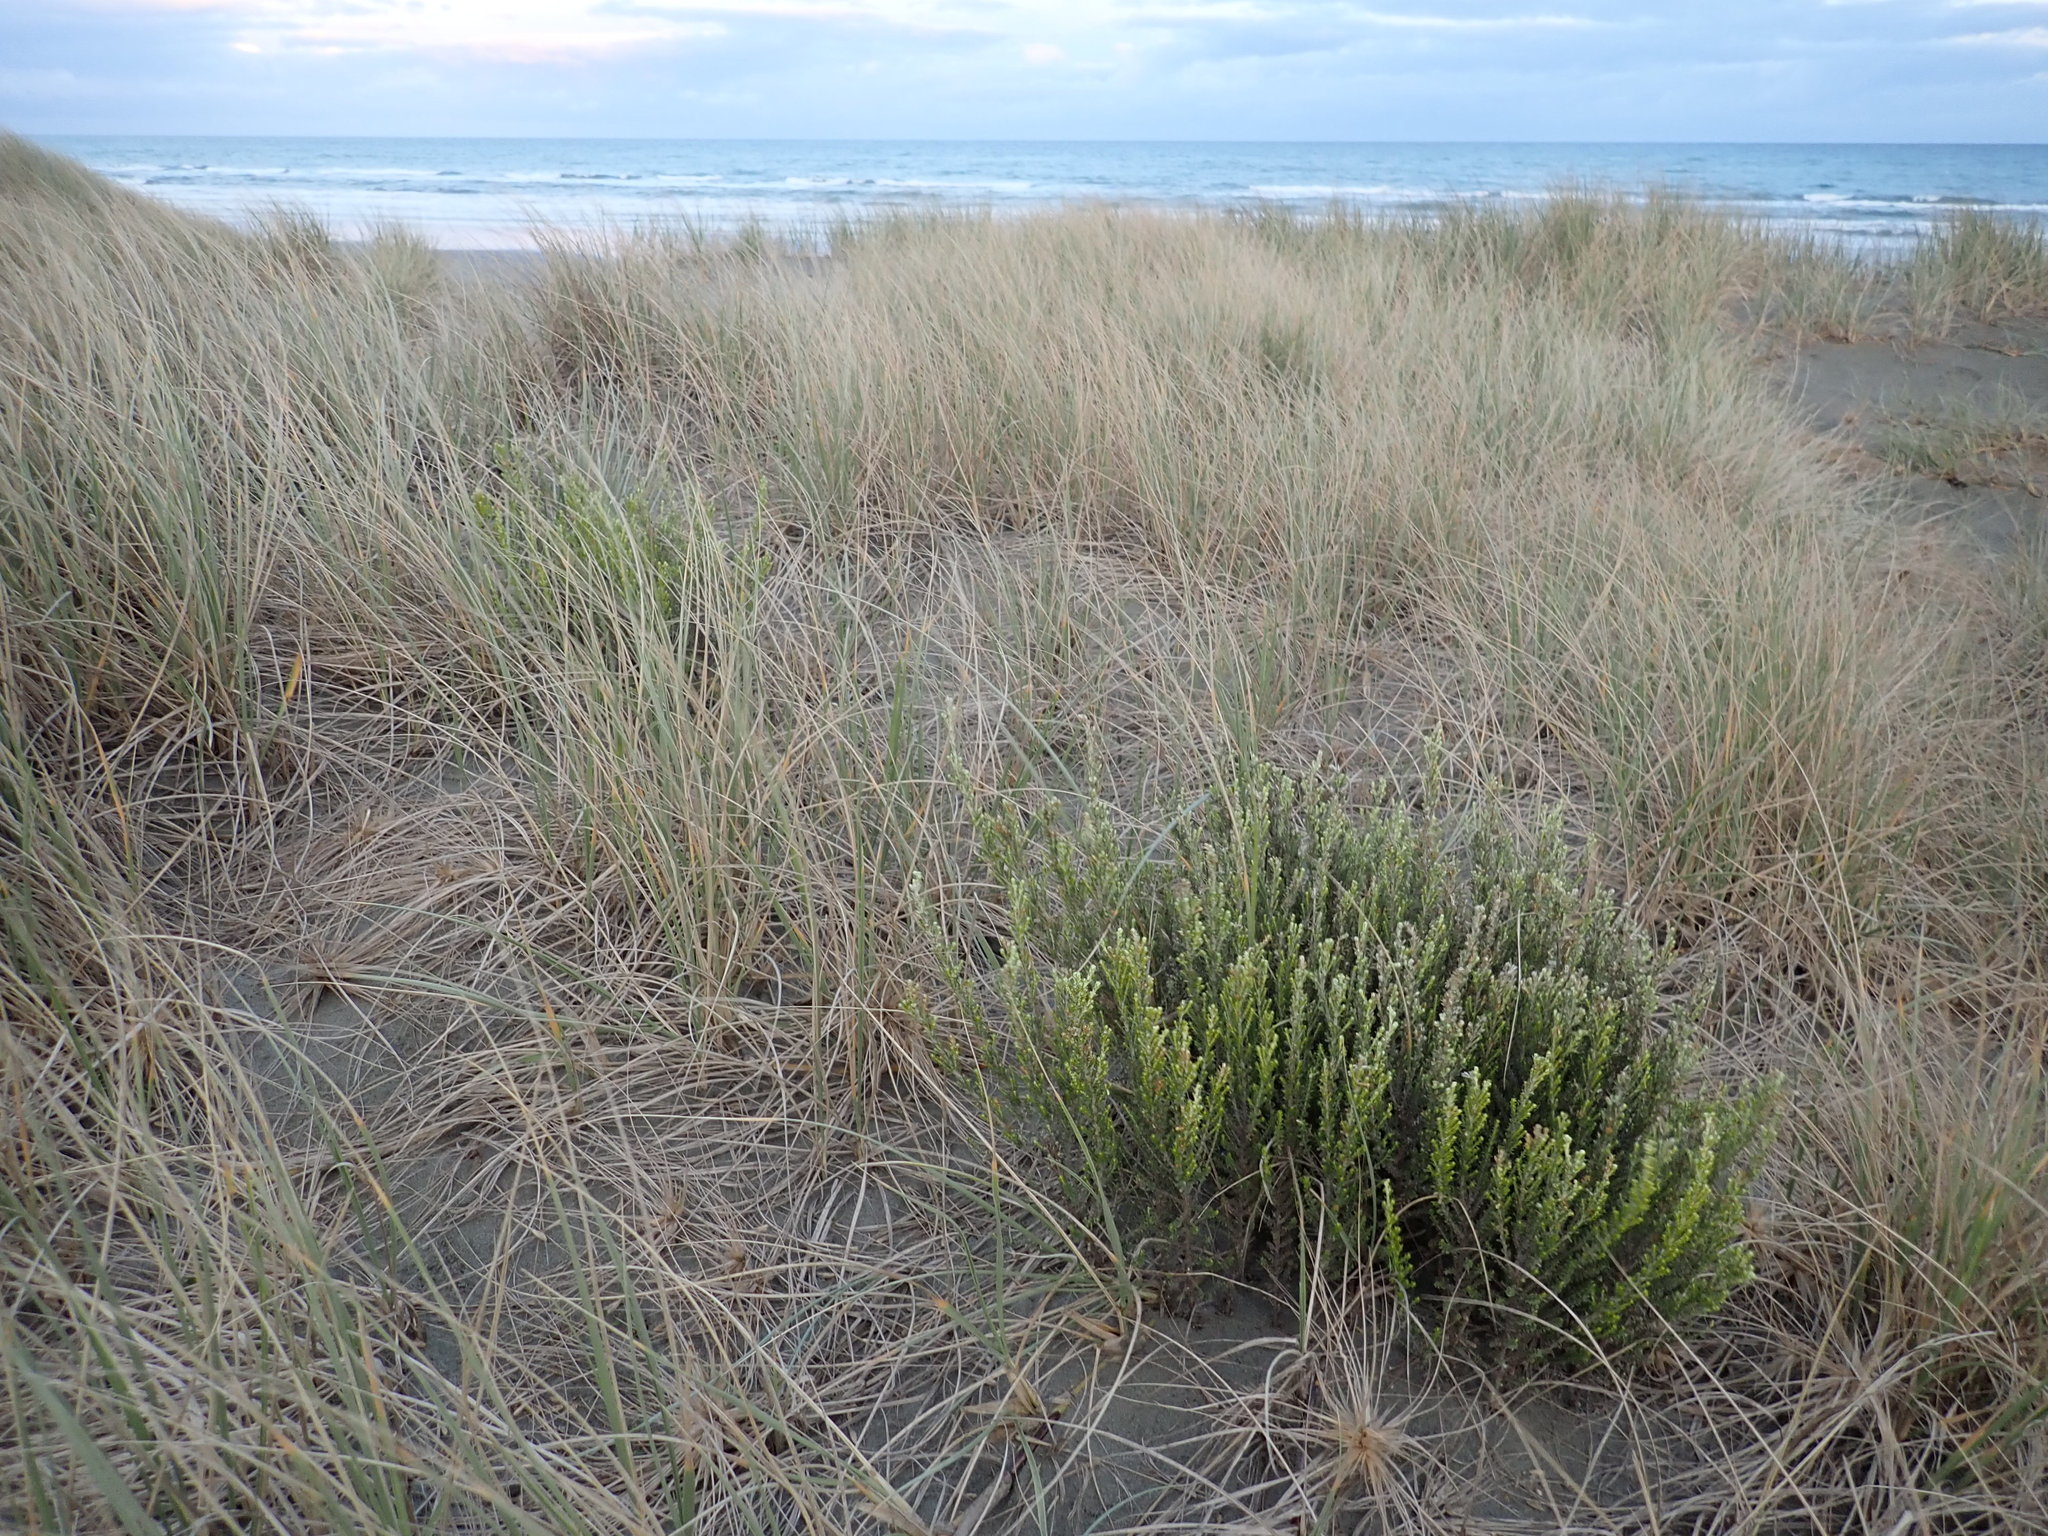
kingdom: Plantae
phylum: Tracheophyta
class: Magnoliopsida
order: Asterales
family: Asteraceae
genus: Ozothamnus
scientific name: Ozothamnus leptophyllus
